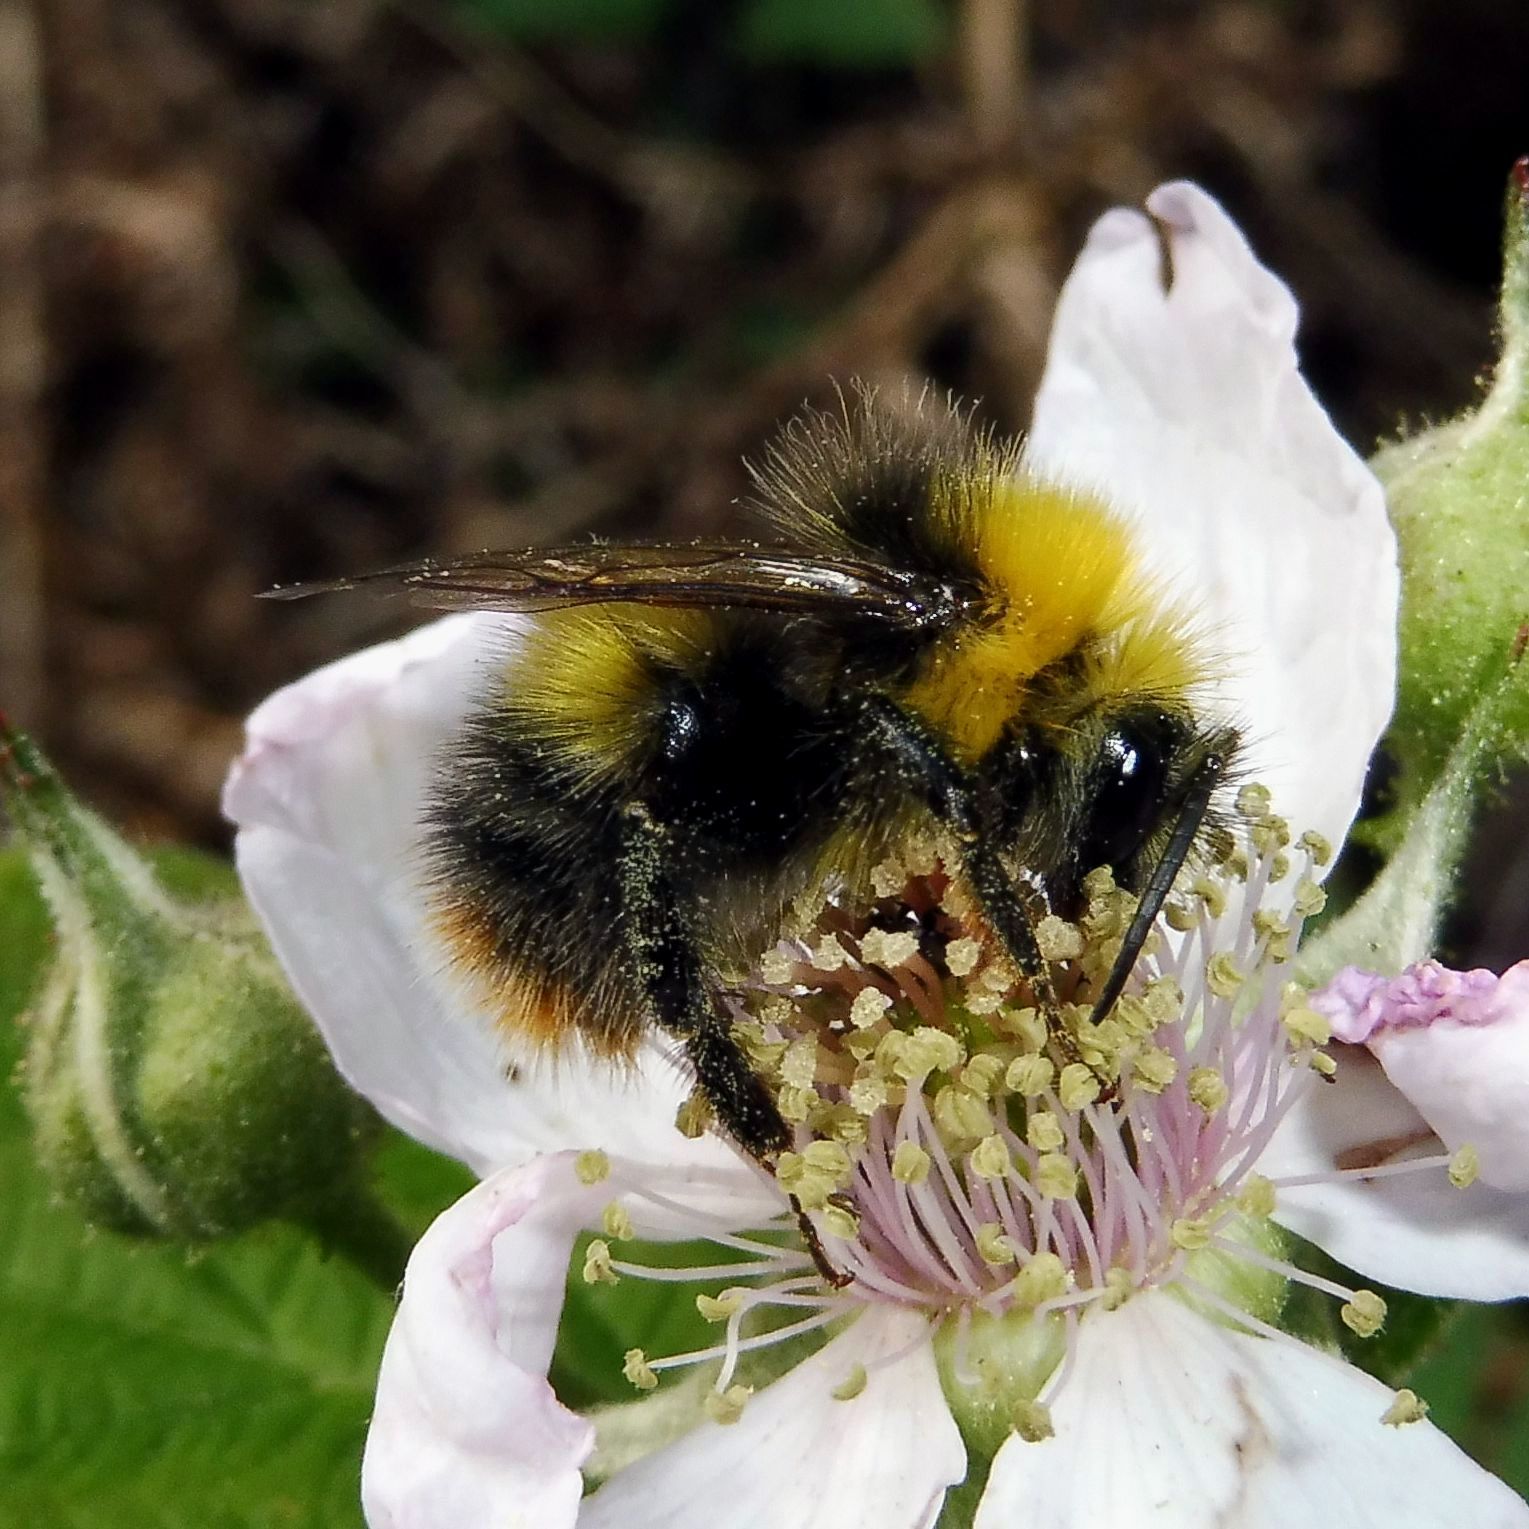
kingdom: Animalia
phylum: Arthropoda
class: Insecta
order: Hymenoptera
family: Apidae
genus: Bombus
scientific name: Bombus pratorum
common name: Early humble-bee
